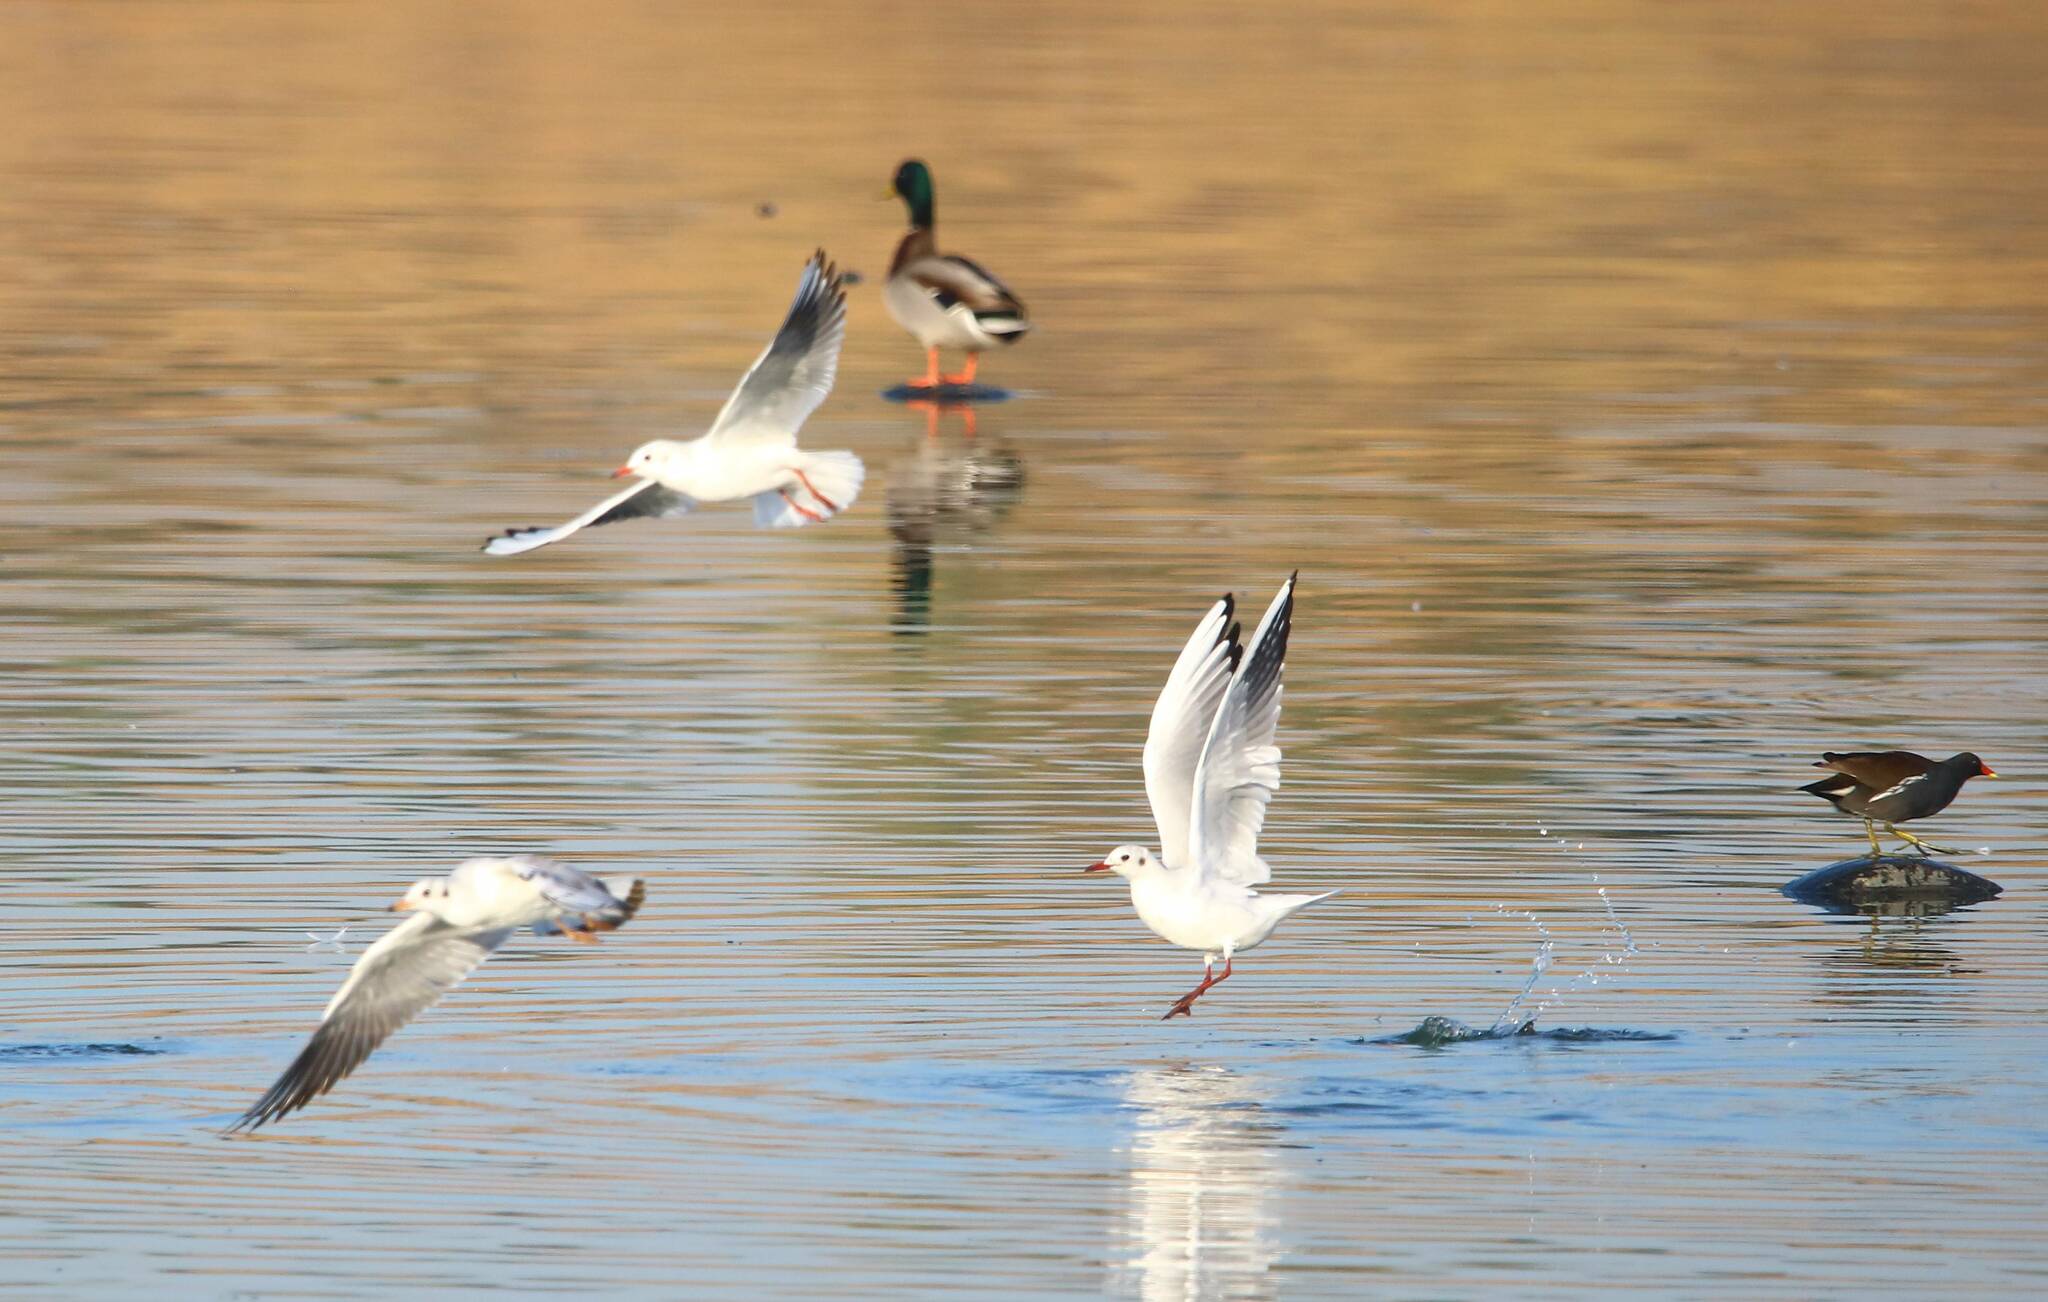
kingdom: Animalia
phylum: Chordata
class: Aves
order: Charadriiformes
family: Laridae
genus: Chroicocephalus
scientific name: Chroicocephalus ridibundus
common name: Black-headed gull
